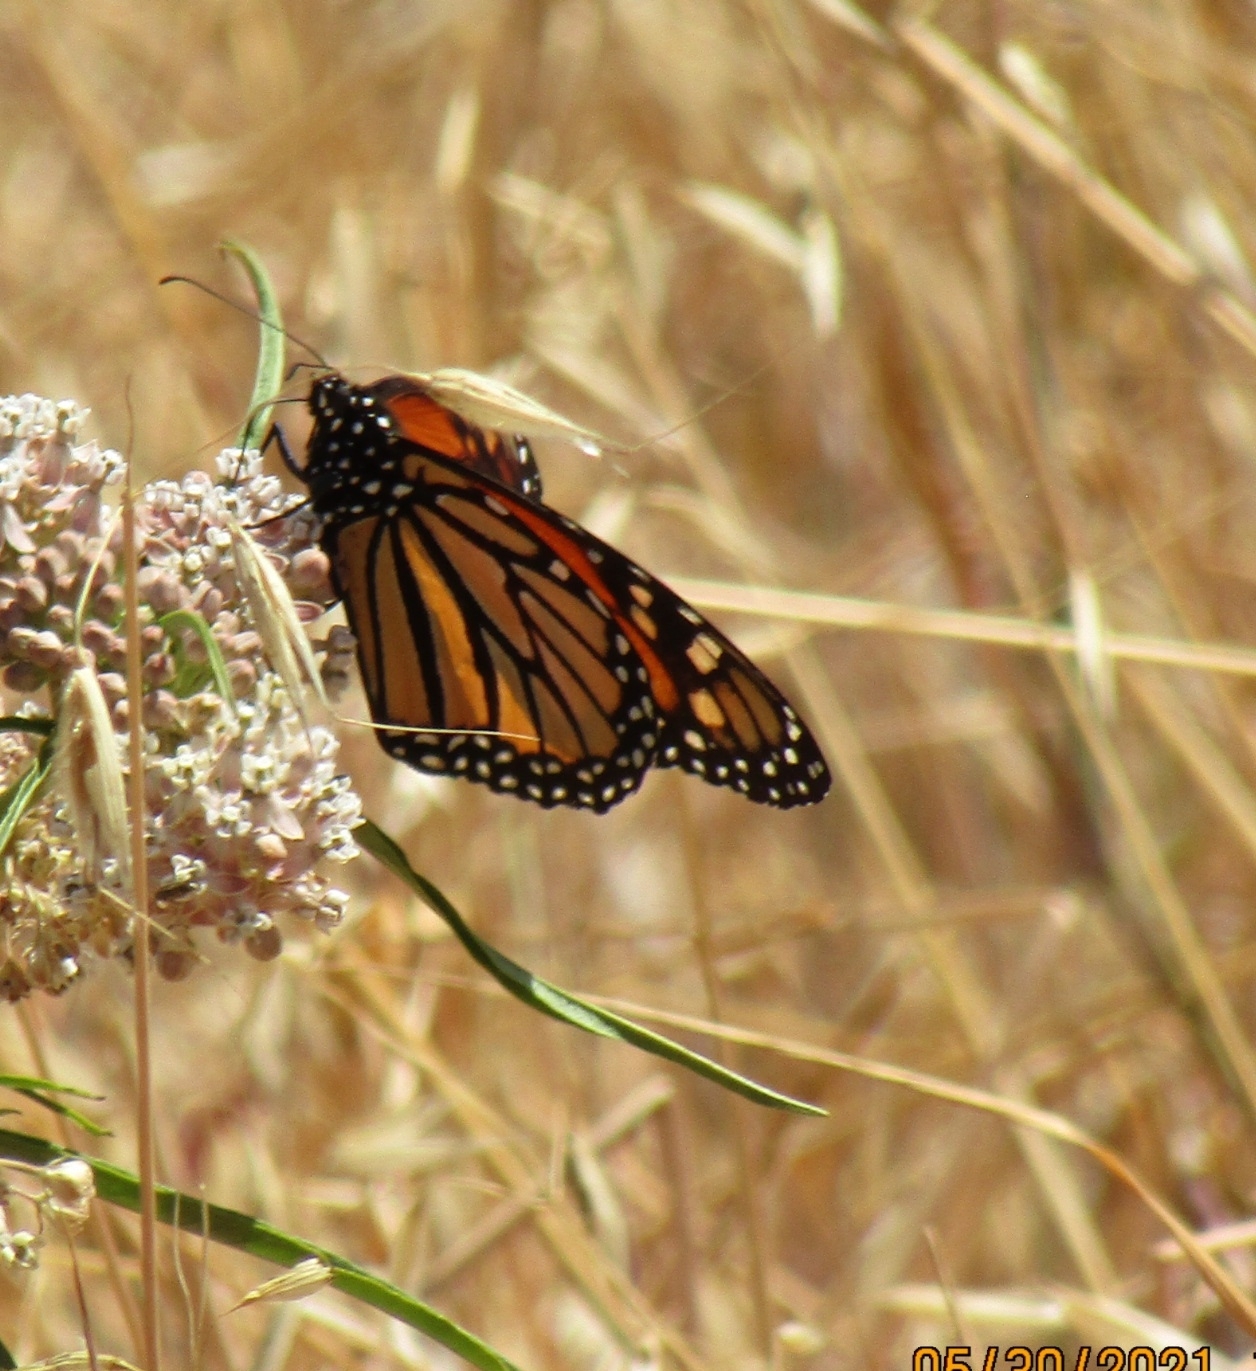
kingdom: Animalia
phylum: Arthropoda
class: Insecta
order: Lepidoptera
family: Nymphalidae
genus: Danaus
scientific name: Danaus plexippus
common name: Monarch
